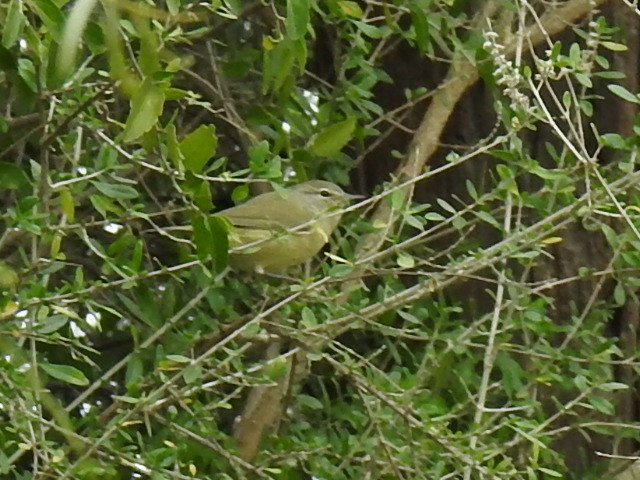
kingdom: Animalia
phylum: Chordata
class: Aves
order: Passeriformes
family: Parulidae
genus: Leiothlypis
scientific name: Leiothlypis celata
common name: Orange-crowned warbler
